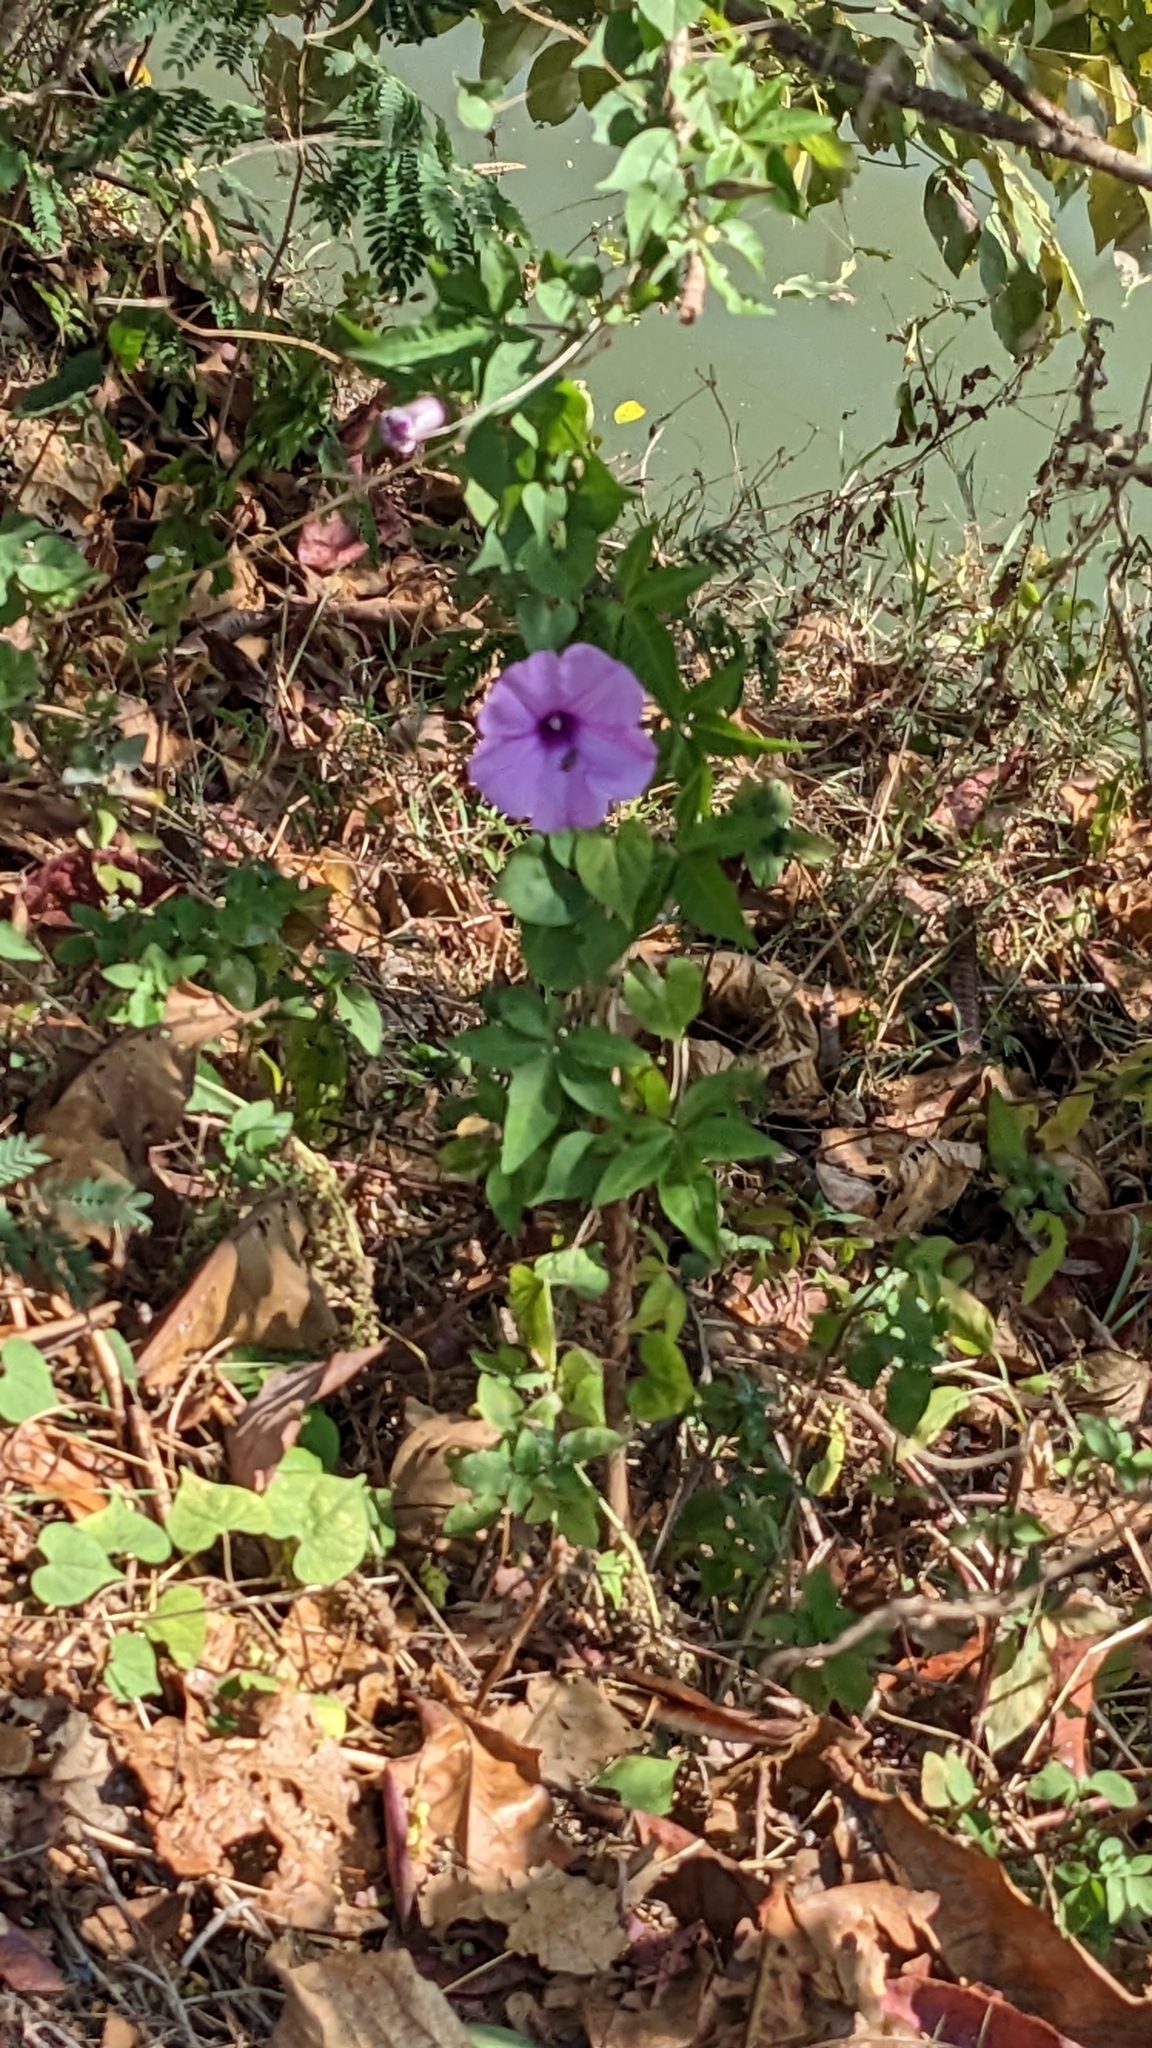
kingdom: Plantae
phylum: Tracheophyta
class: Magnoliopsida
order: Solanales
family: Convolvulaceae
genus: Ipomoea
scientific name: Ipomoea cairica
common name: Mile a minute vine
